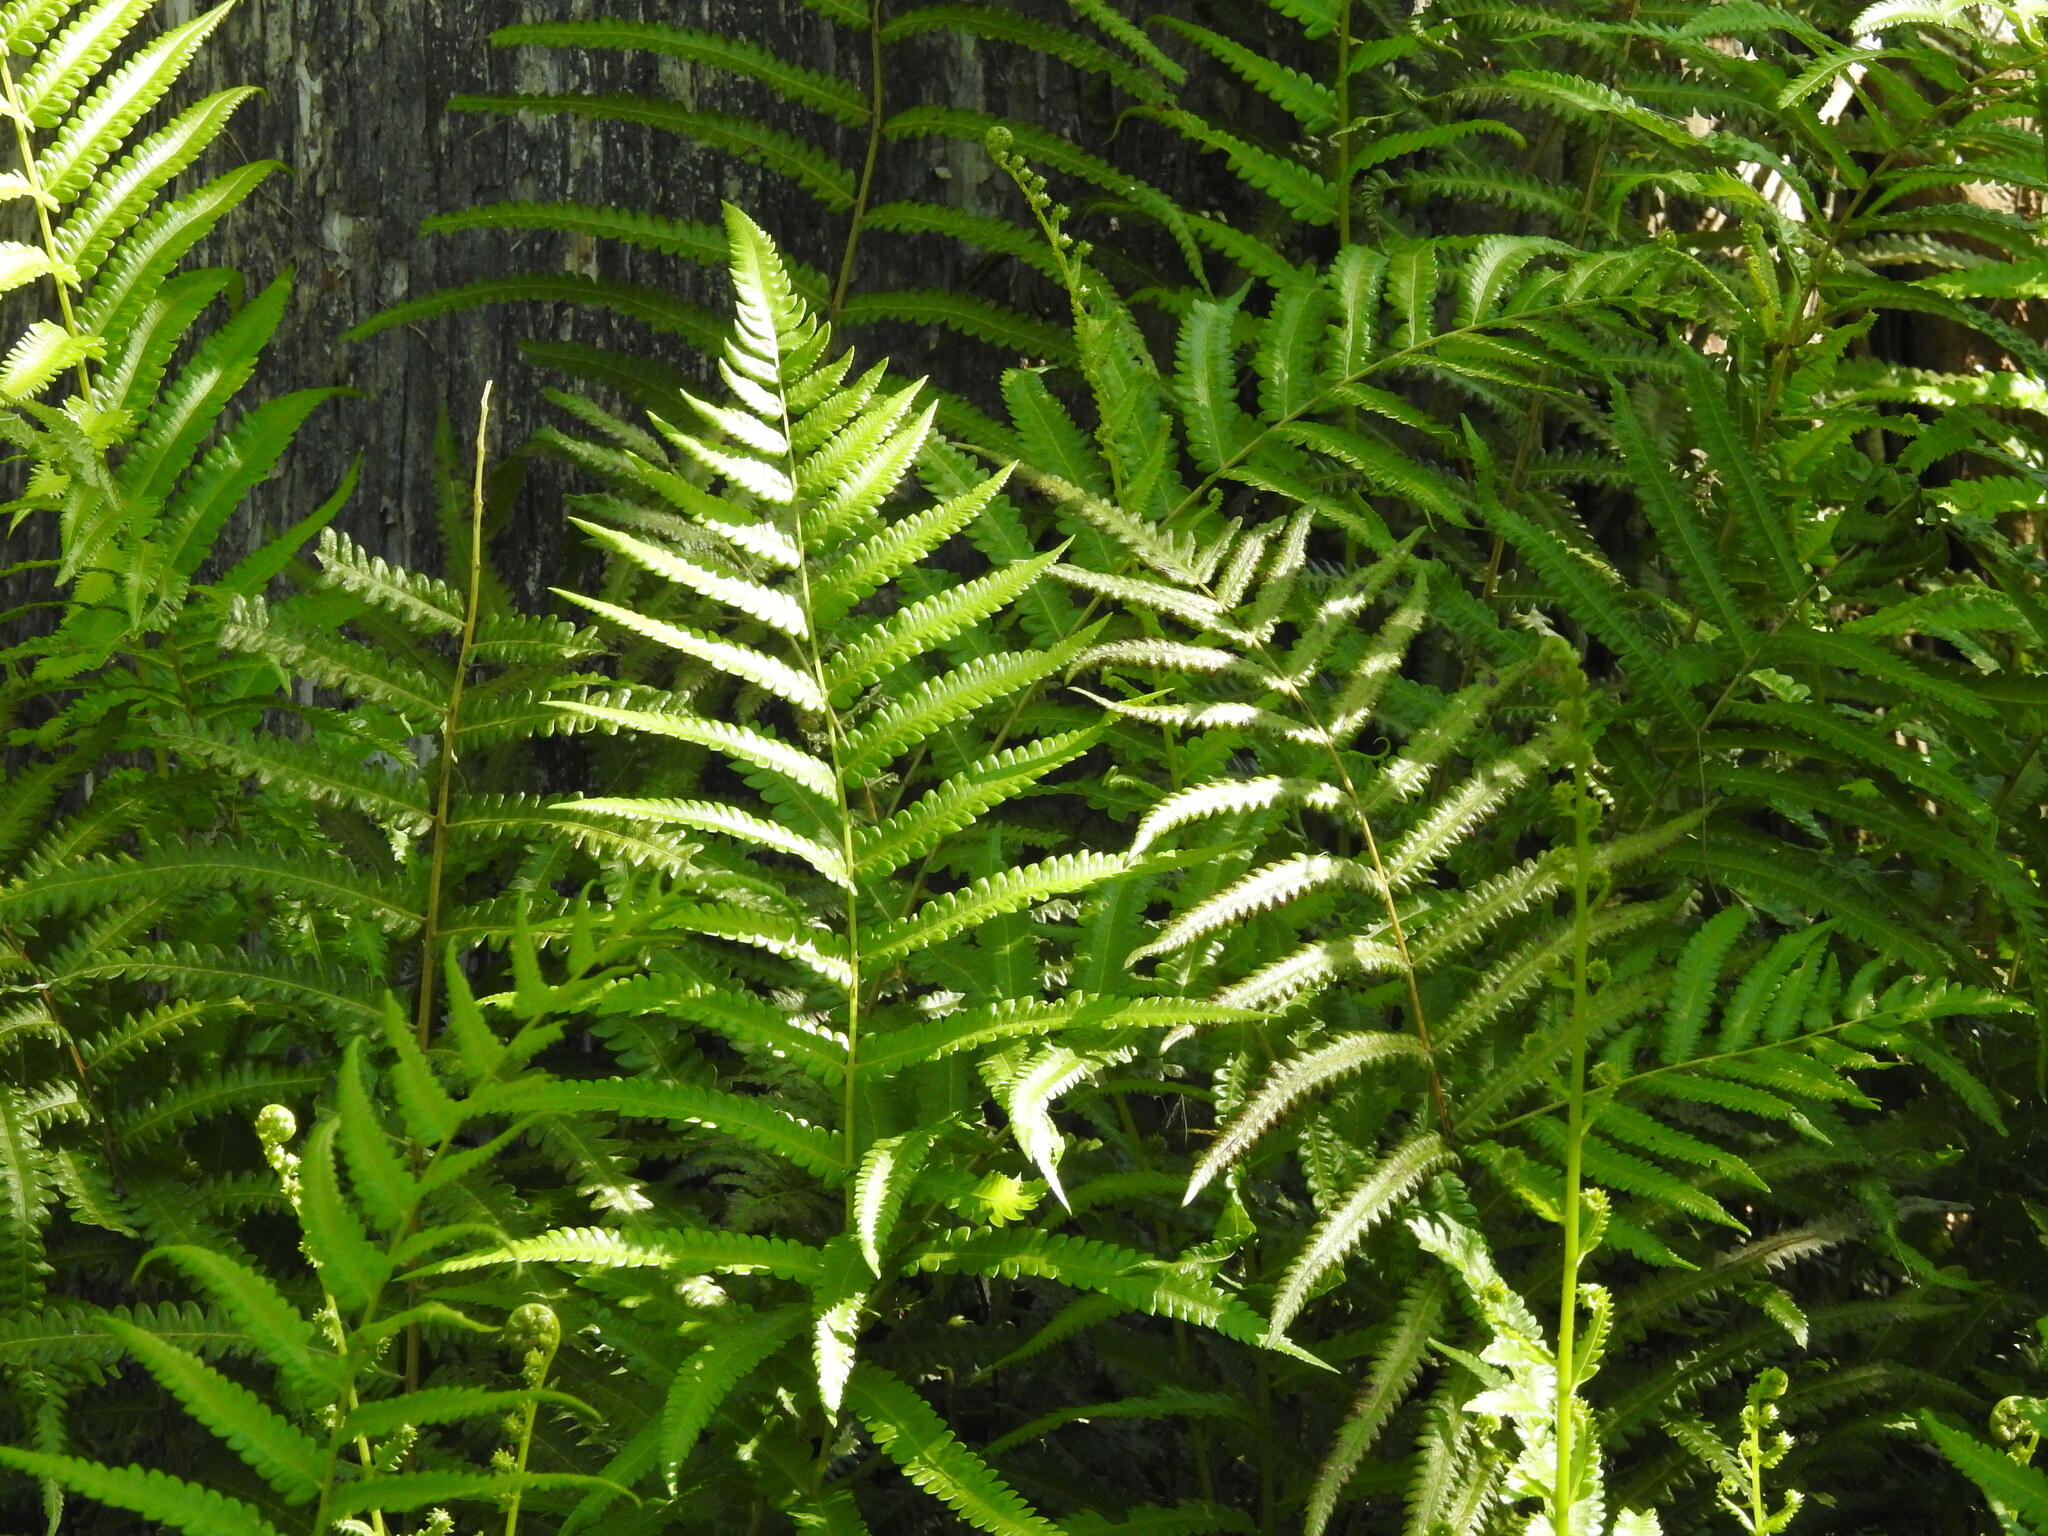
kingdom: Plantae
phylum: Tracheophyta
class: Polypodiopsida
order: Polypodiales
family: Thelypteridaceae
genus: Cyclosorus
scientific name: Cyclosorus interruptus
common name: Neke fern
